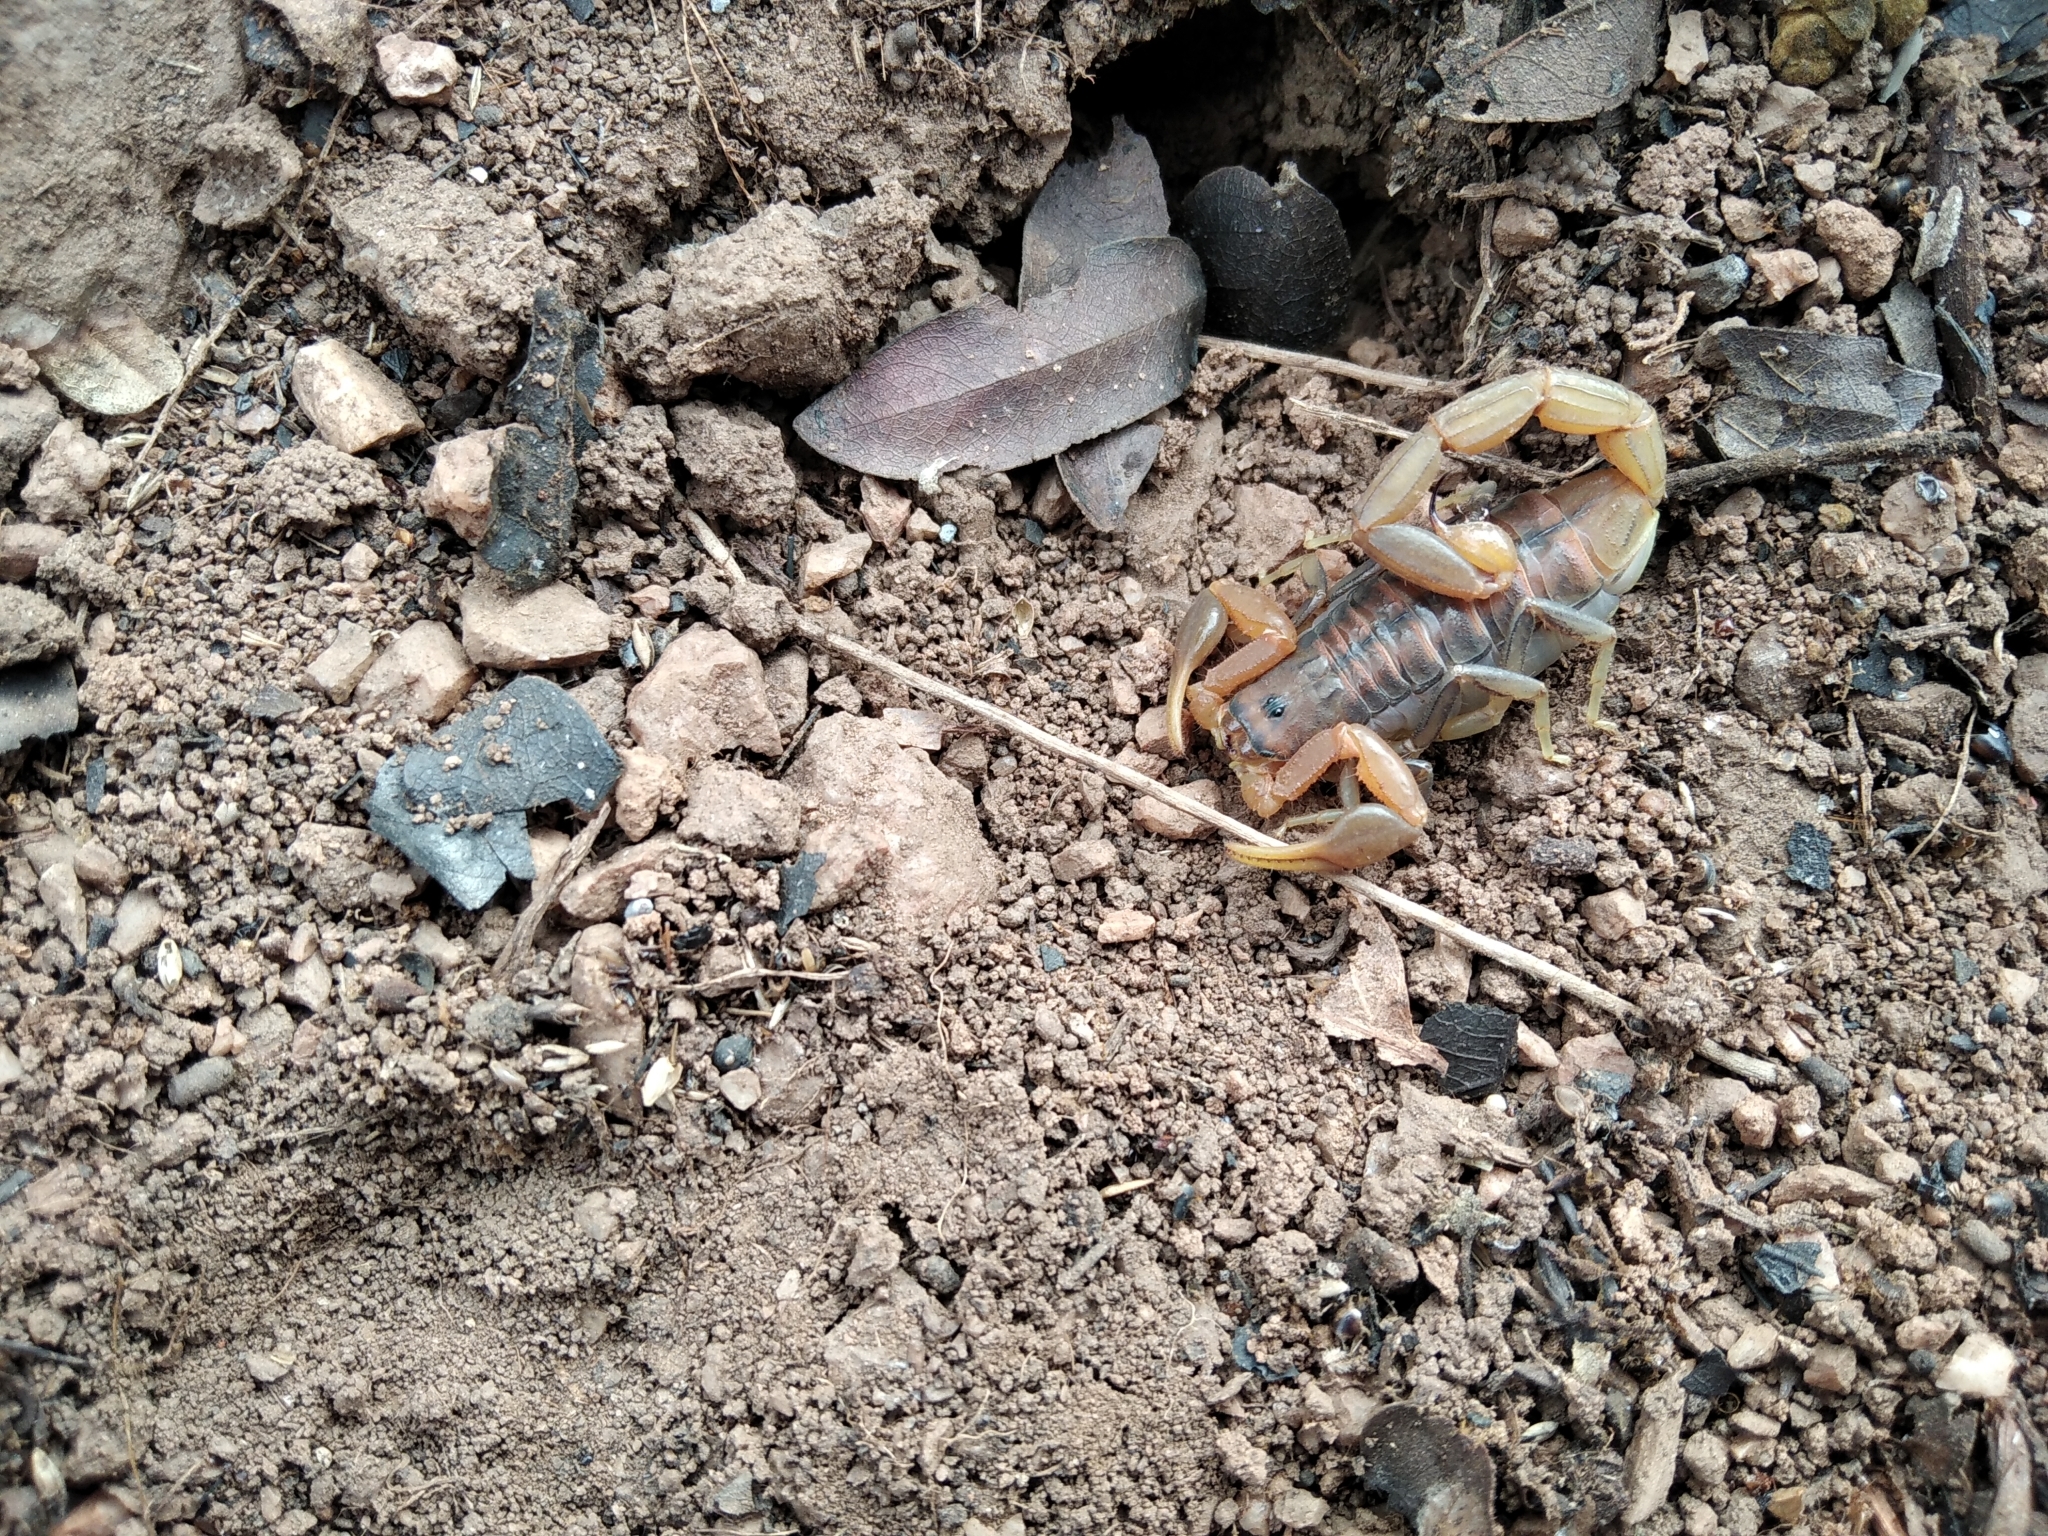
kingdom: Animalia
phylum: Arthropoda
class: Arachnida
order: Scorpiones
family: Buthidae
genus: Uroplectes
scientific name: Uroplectes planimanus
